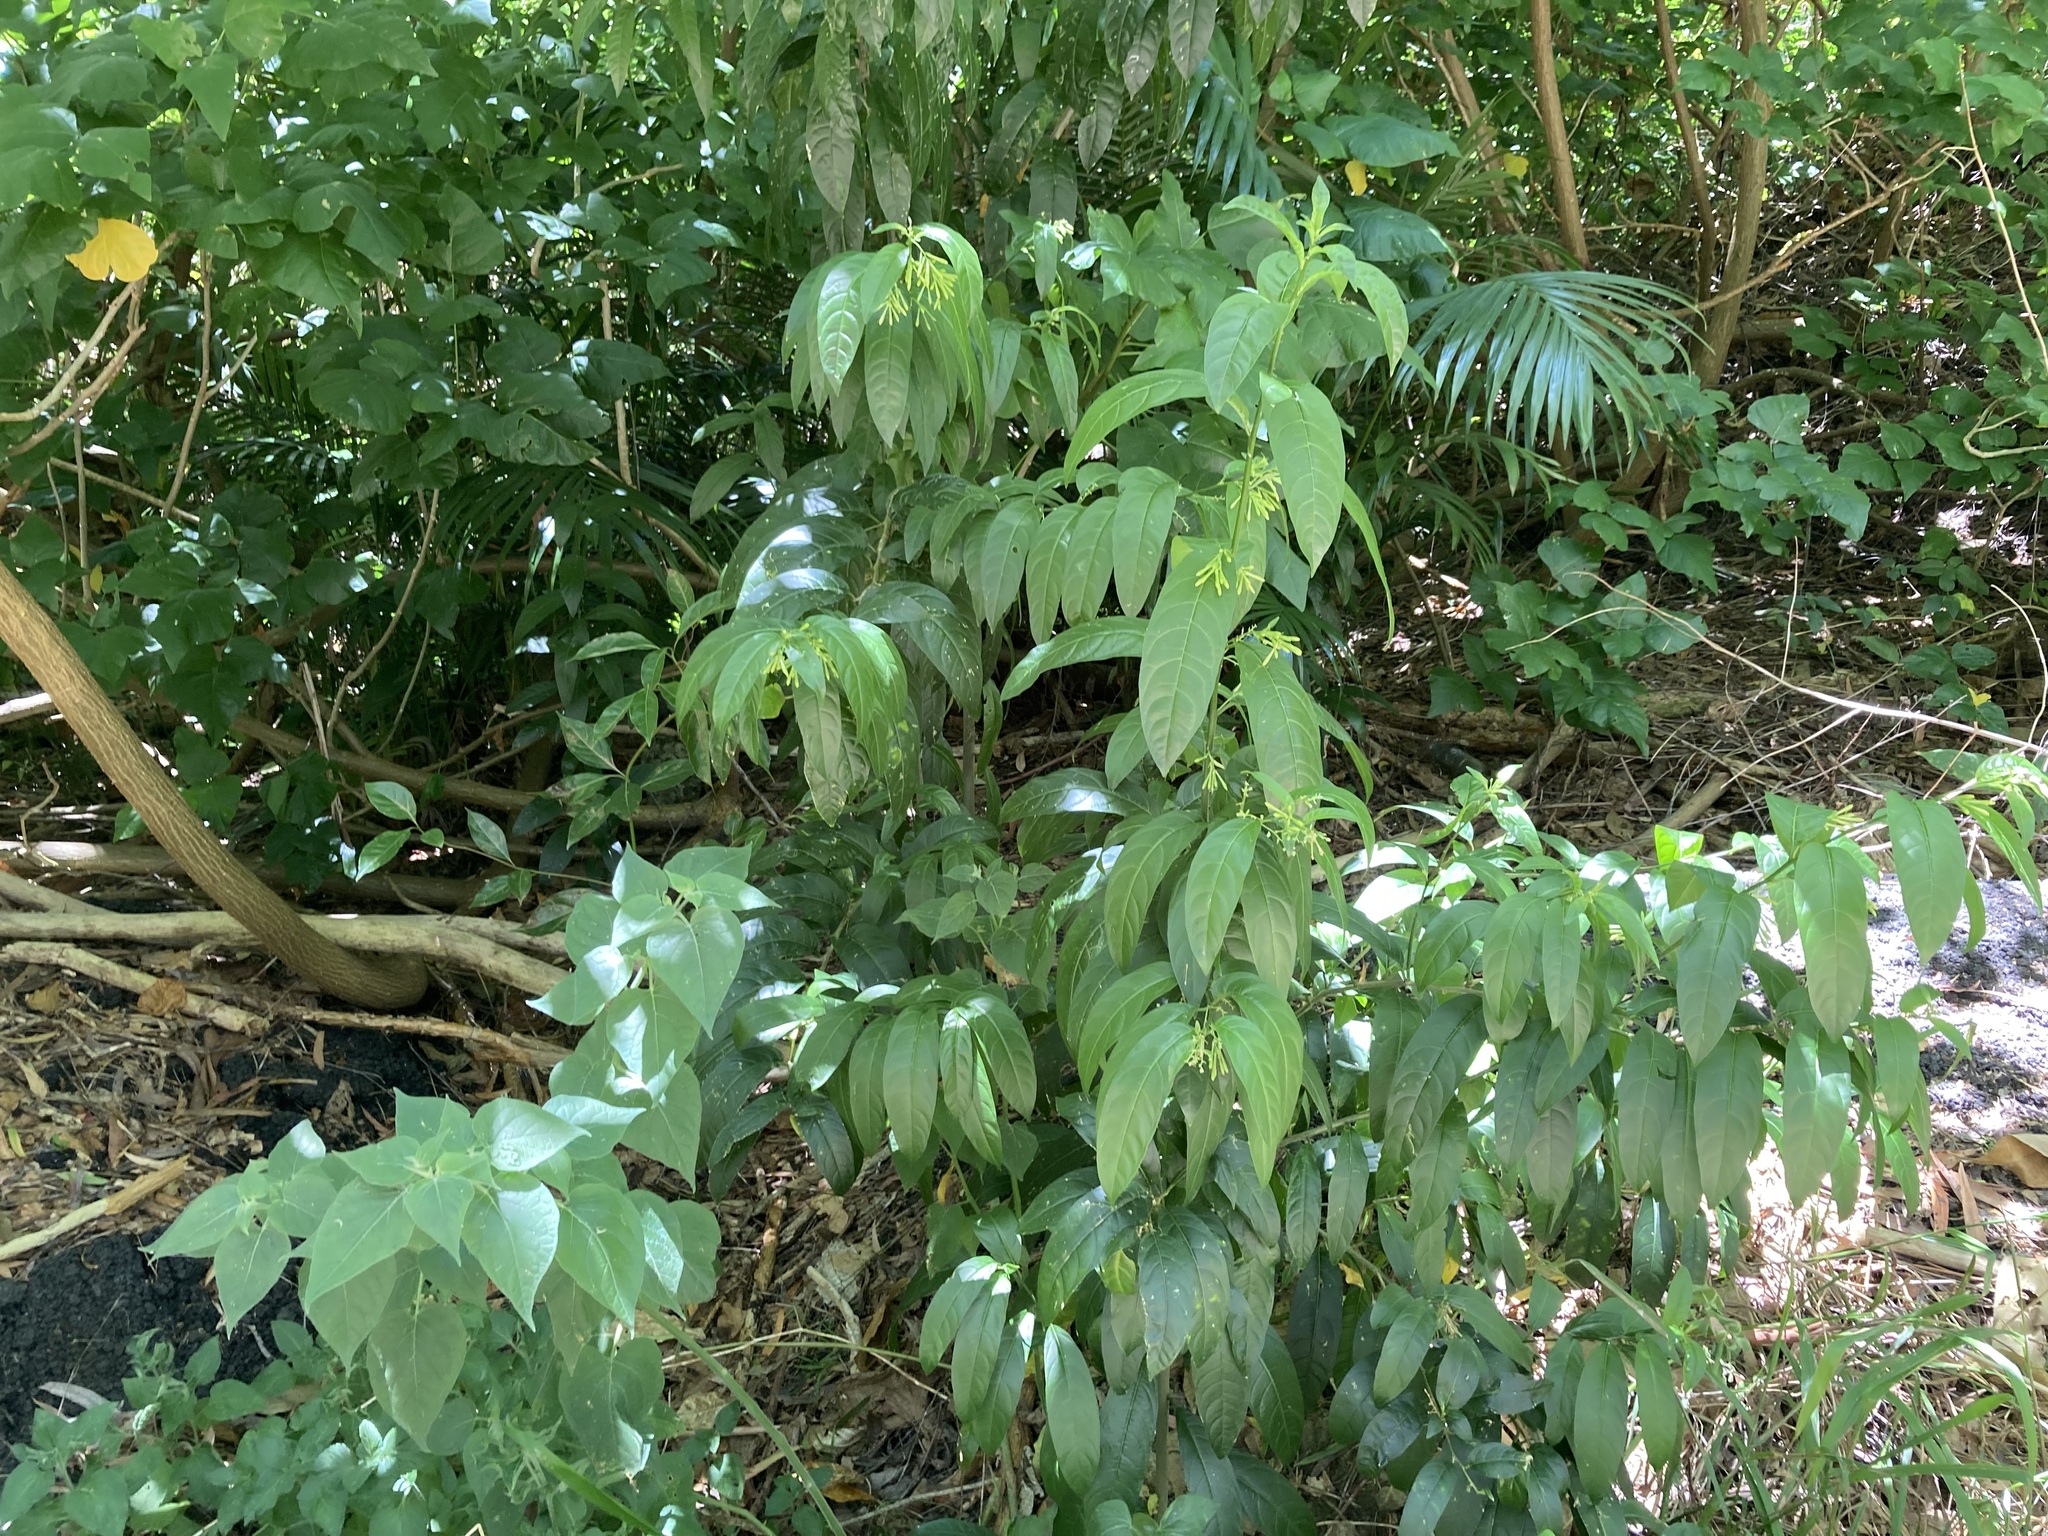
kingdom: Plantae
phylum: Tracheophyta
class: Magnoliopsida
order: Solanales
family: Solanaceae
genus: Cestrum
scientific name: Cestrum nocturnum
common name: Night jessamine
